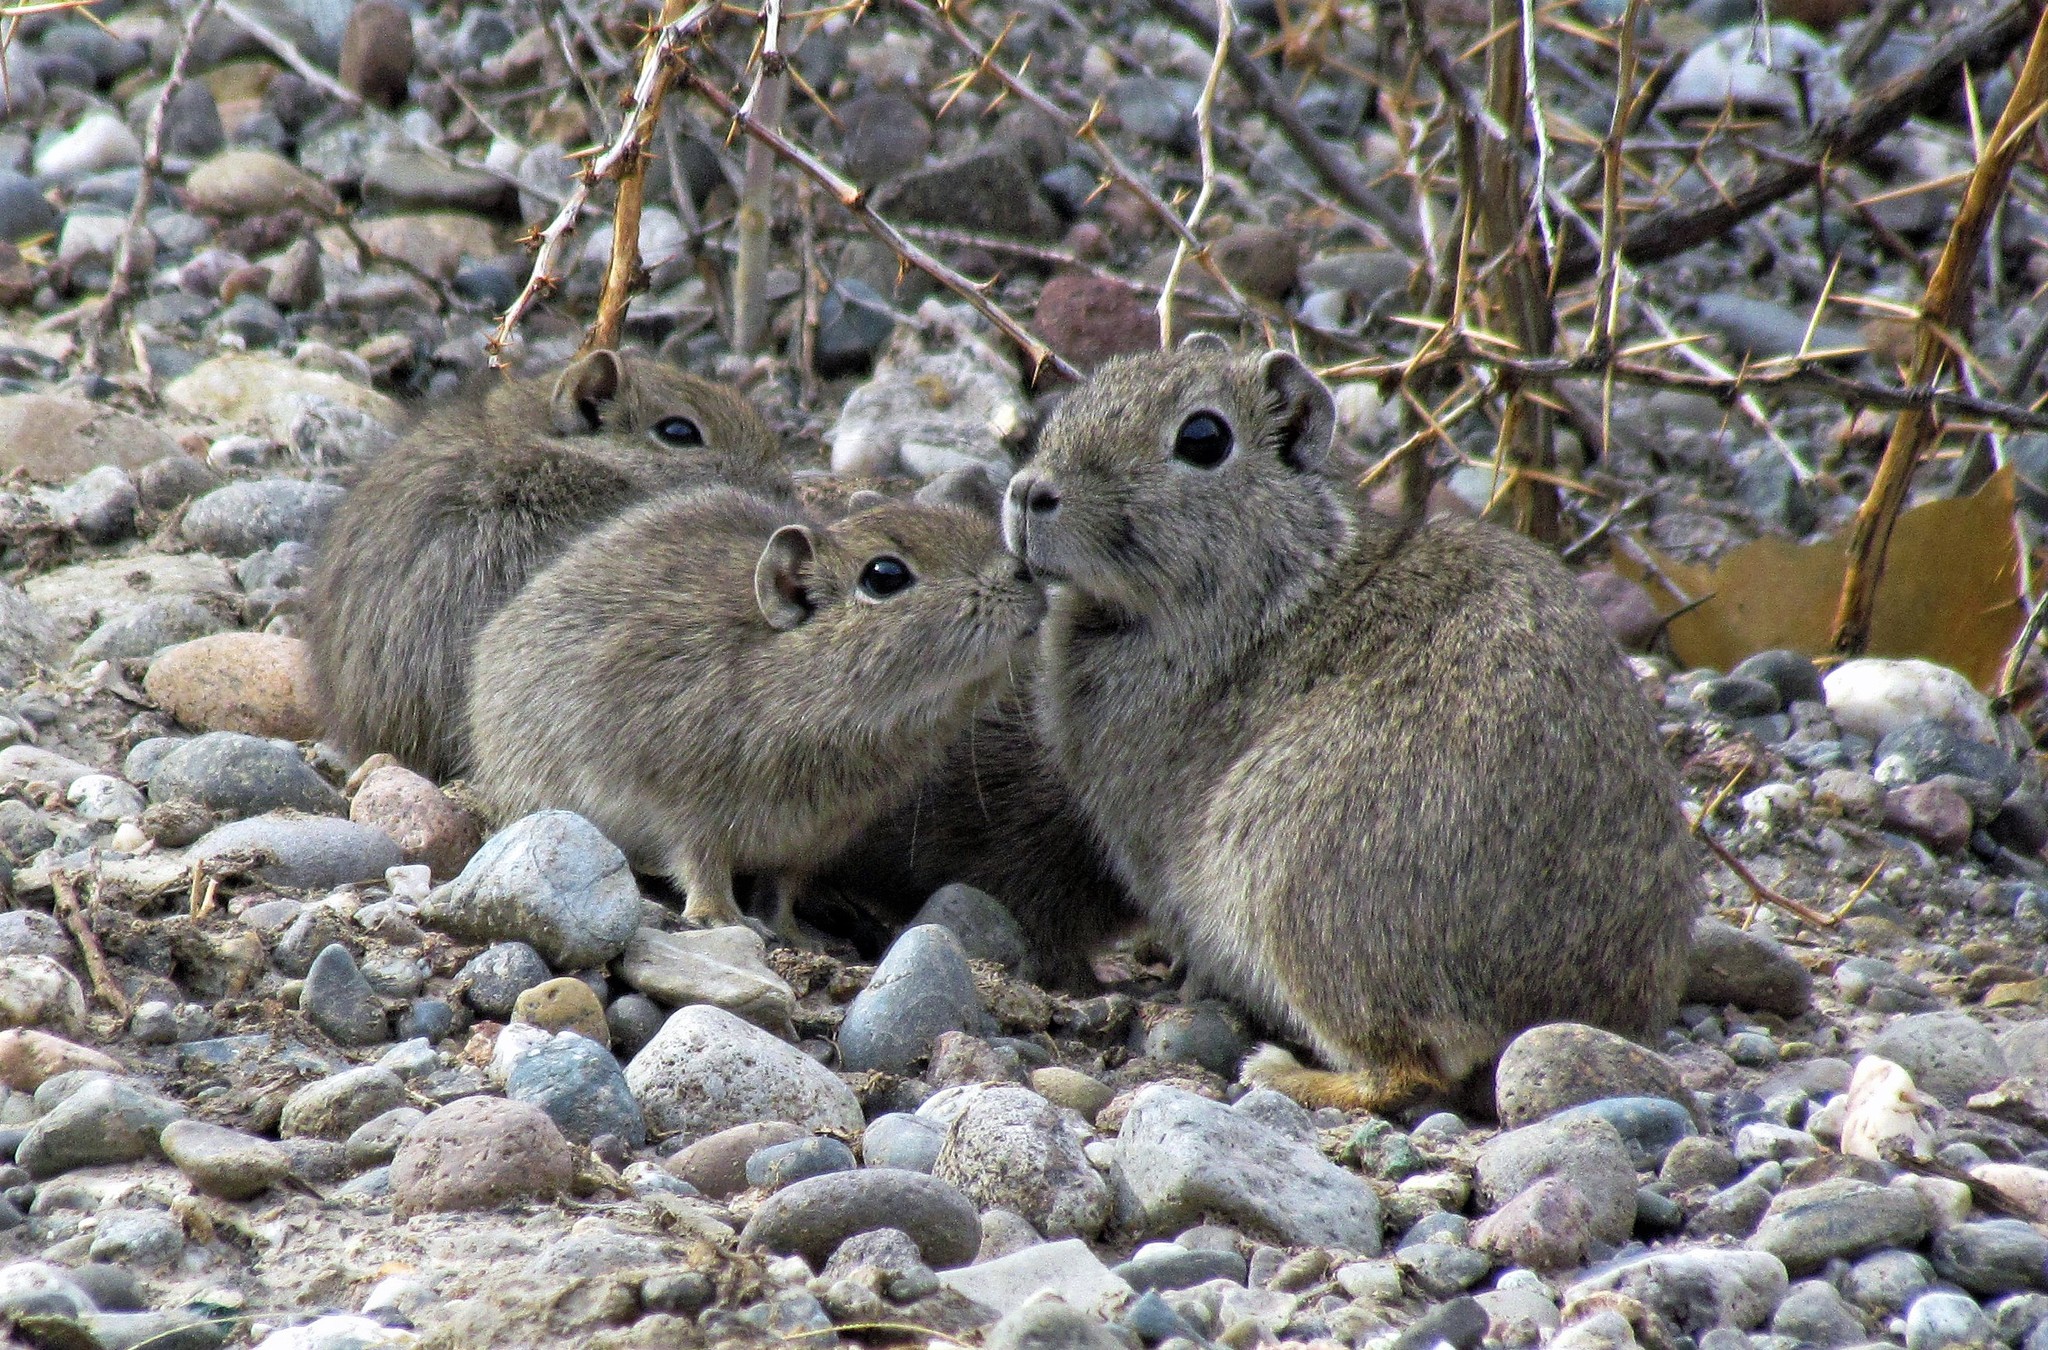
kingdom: Animalia
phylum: Chordata
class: Mammalia
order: Rodentia
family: Caviidae
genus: Microcavia
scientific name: Microcavia australis
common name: Southern mountain cavy
